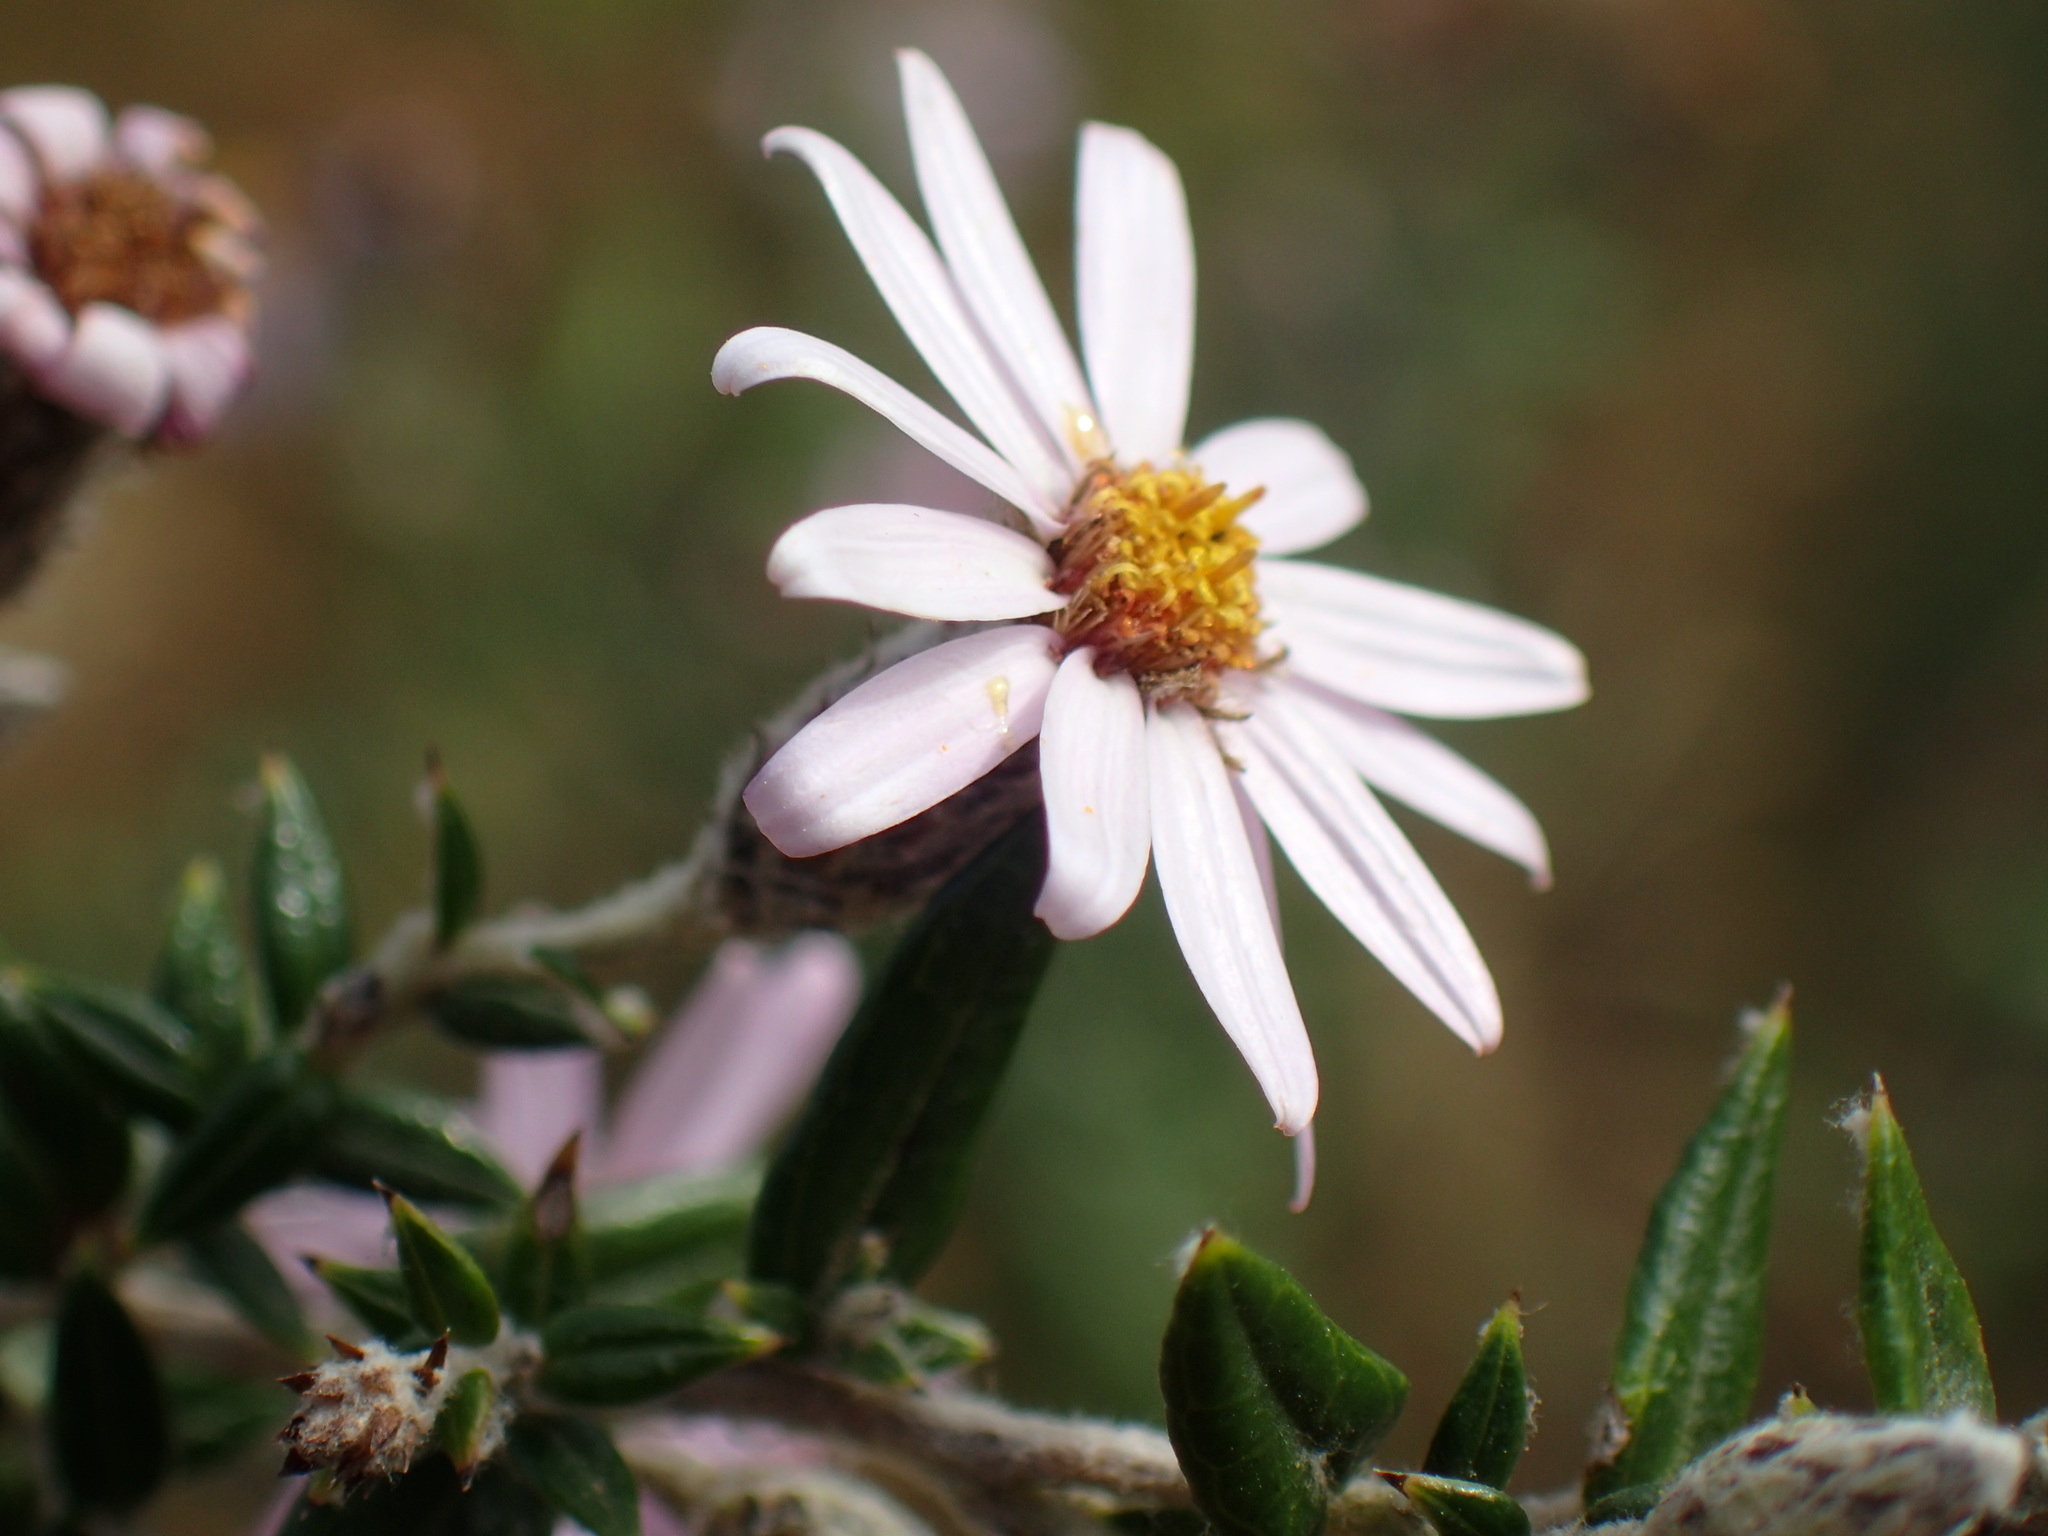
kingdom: Plantae
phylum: Tracheophyta
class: Magnoliopsida
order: Asterales
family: Asteraceae
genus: Athrixia
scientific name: Athrixia phylicoides
